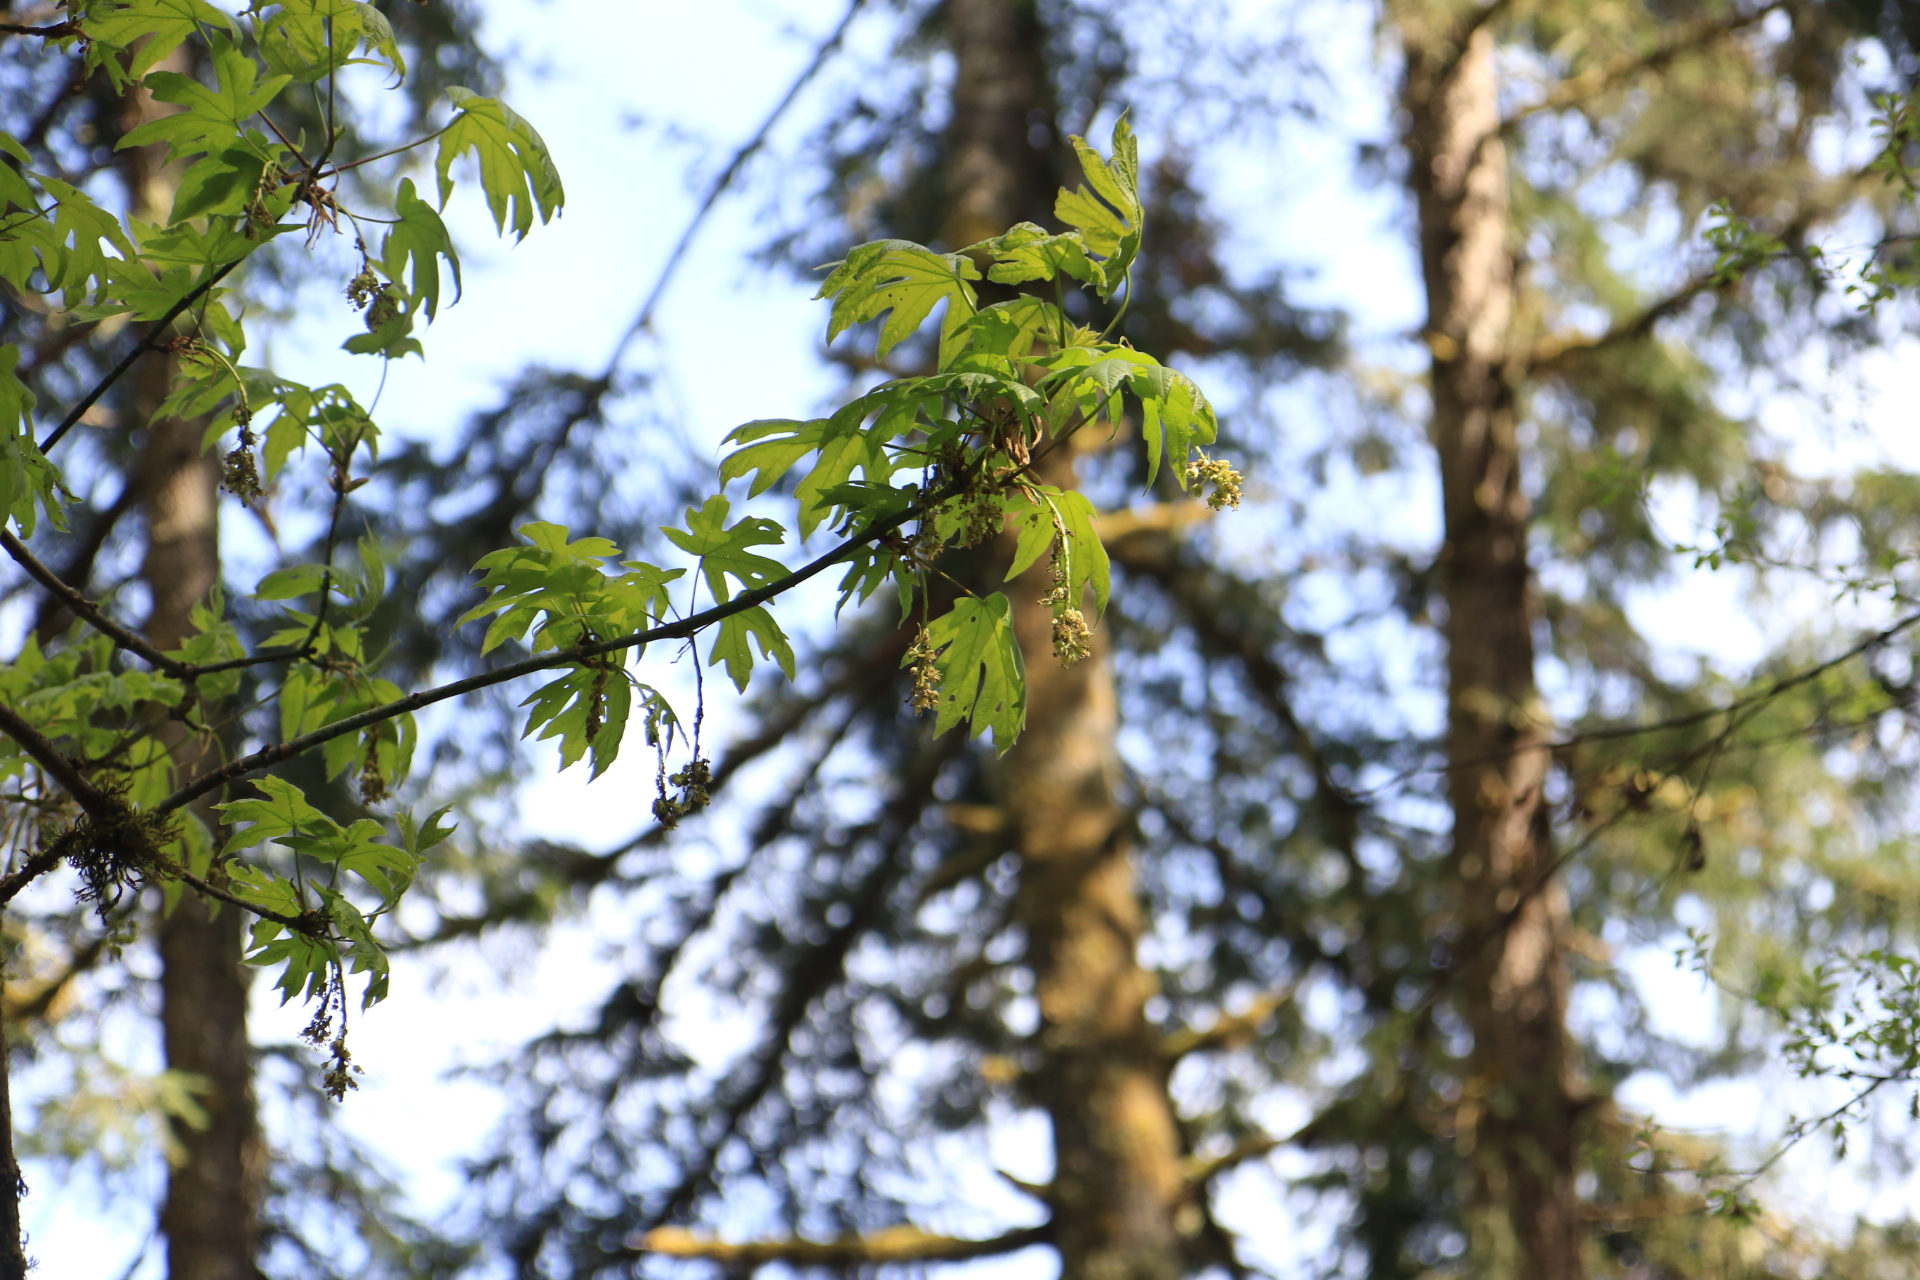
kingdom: Plantae
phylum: Tracheophyta
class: Magnoliopsida
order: Sapindales
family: Sapindaceae
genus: Acer
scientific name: Acer macrophyllum
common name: Oregon maple
